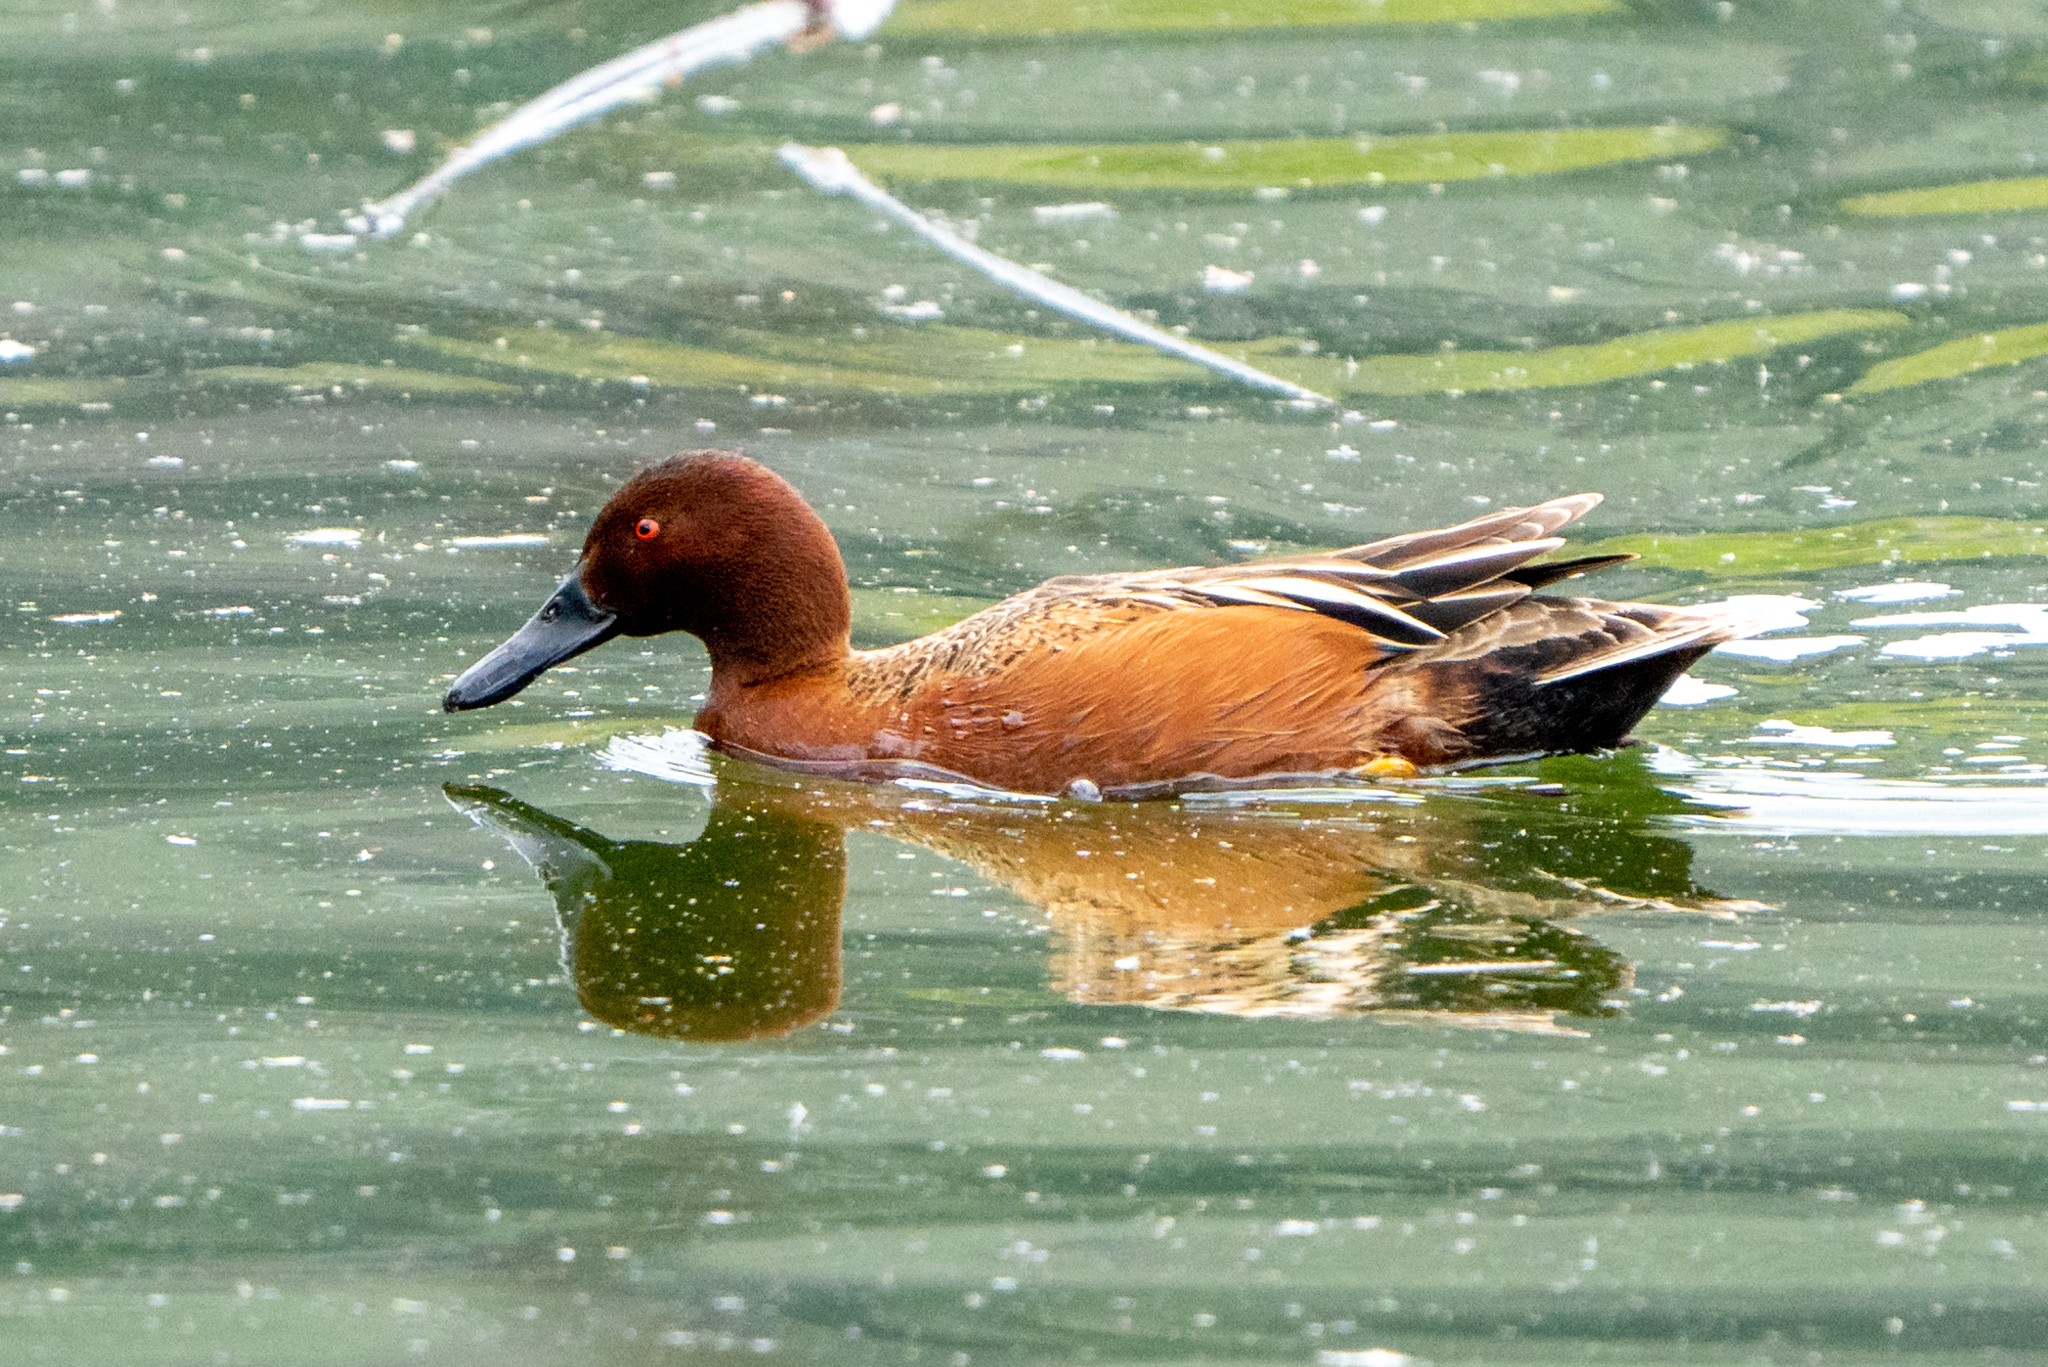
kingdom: Animalia
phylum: Chordata
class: Aves
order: Anseriformes
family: Anatidae
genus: Spatula
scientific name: Spatula cyanoptera
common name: Cinnamon teal
